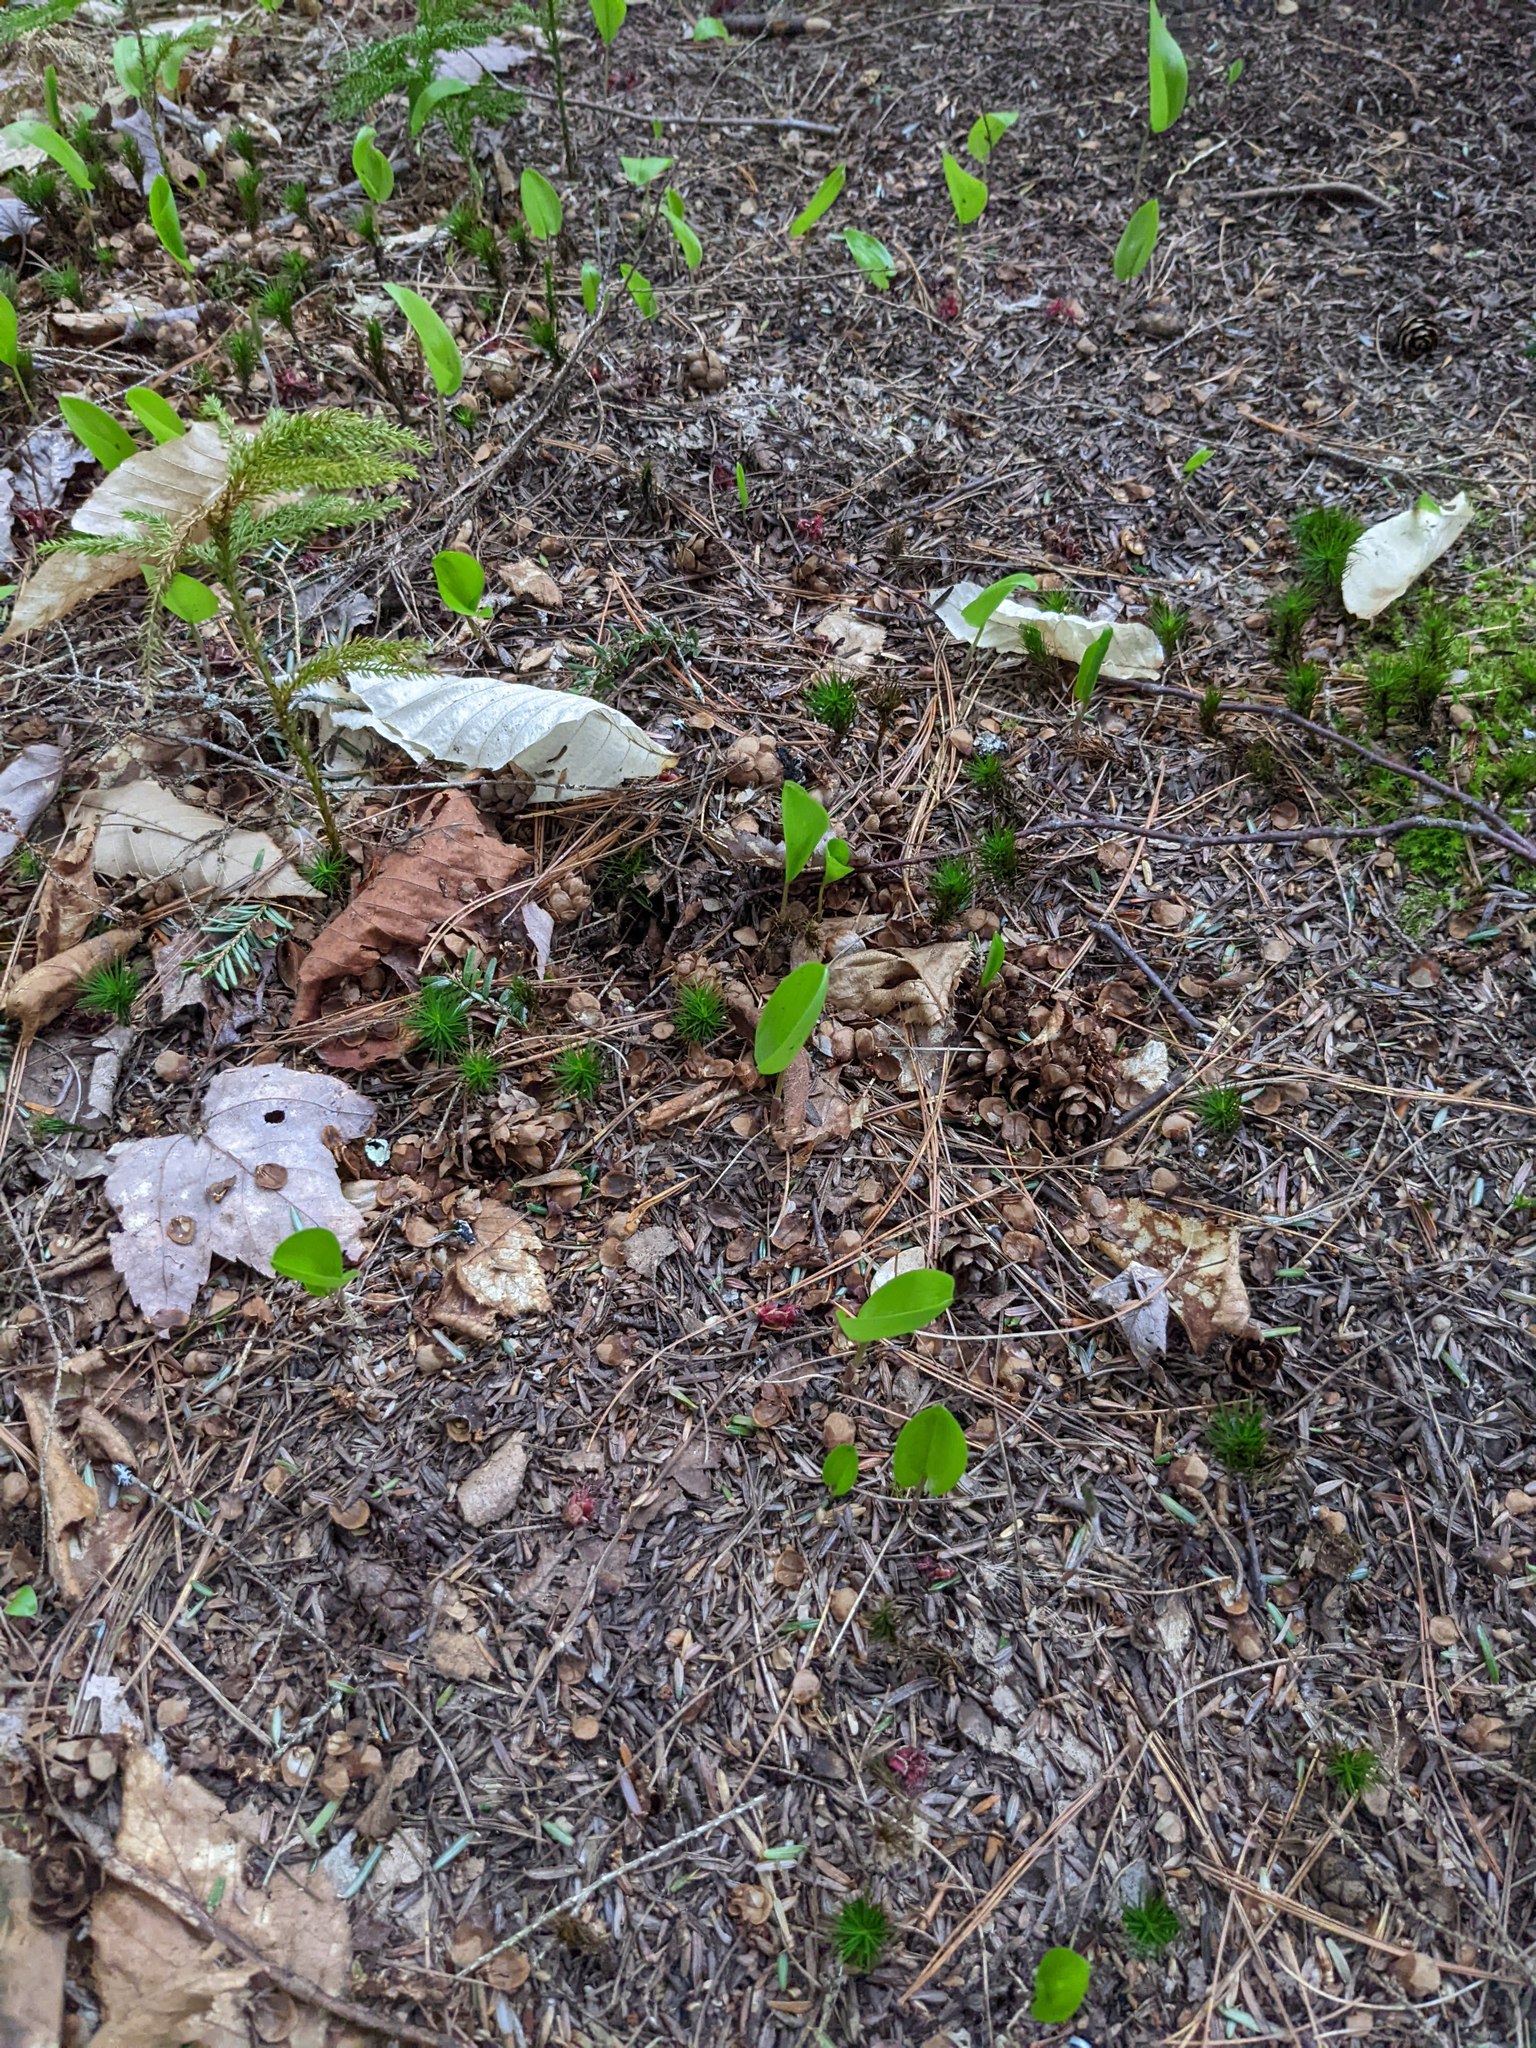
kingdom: Plantae
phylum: Tracheophyta
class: Liliopsida
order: Asparagales
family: Asparagaceae
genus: Maianthemum
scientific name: Maianthemum canadense
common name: False lily-of-the-valley
